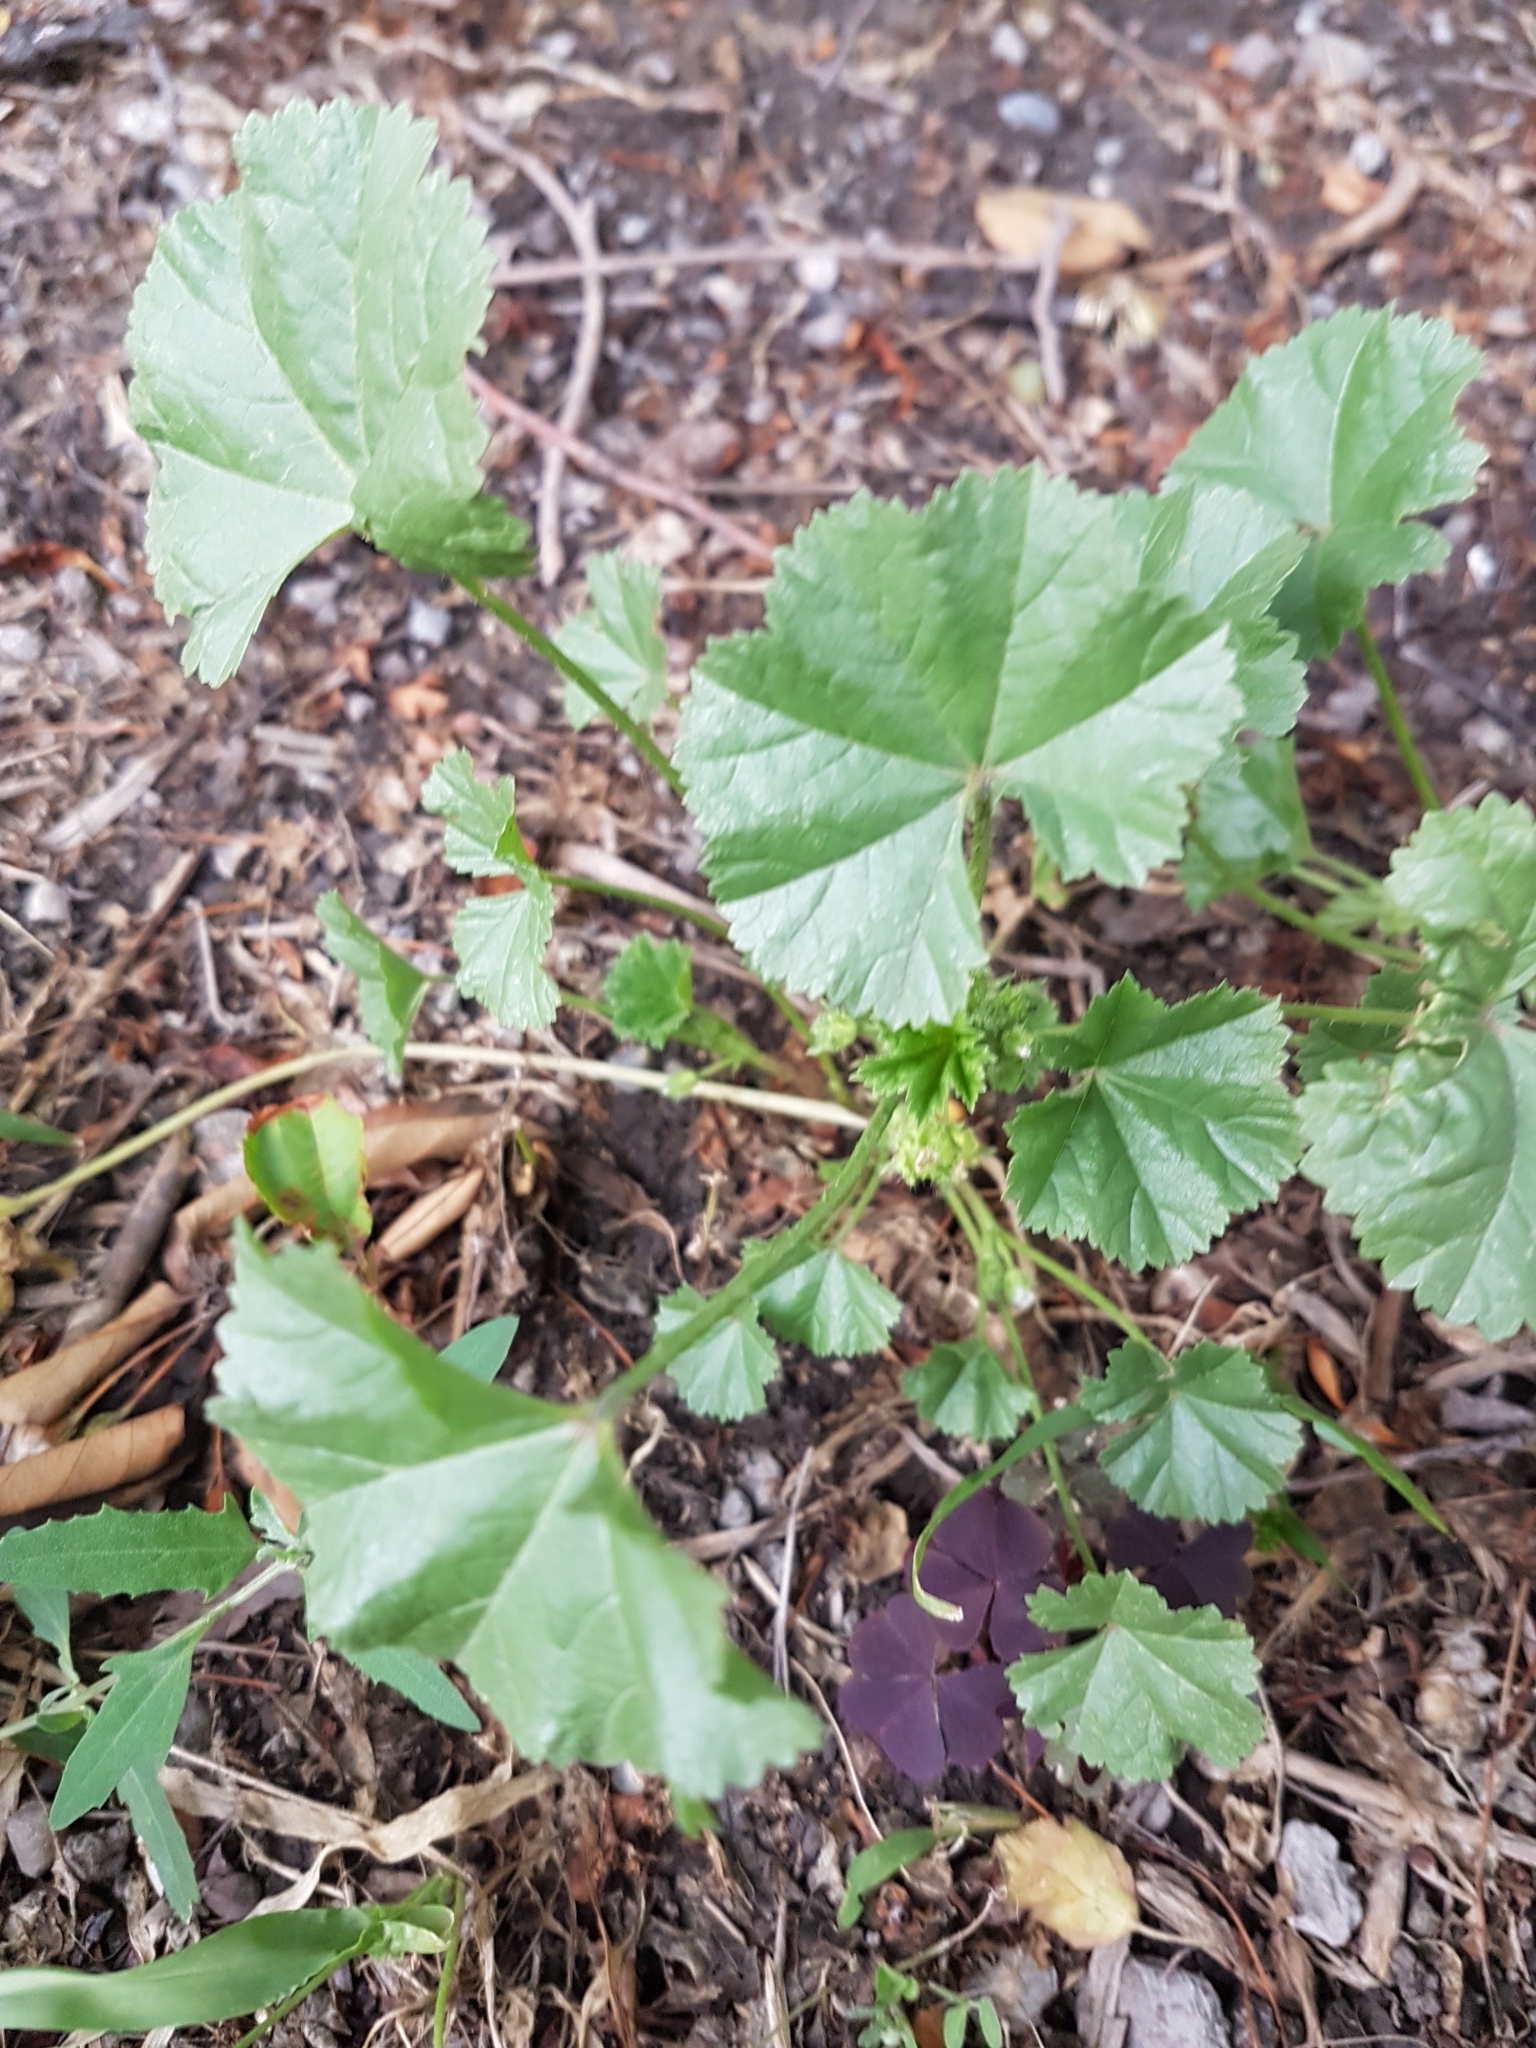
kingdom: Plantae
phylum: Tracheophyta
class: Magnoliopsida
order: Malvales
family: Malvaceae
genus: Malva
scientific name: Malva pusilla
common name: Small mallow
